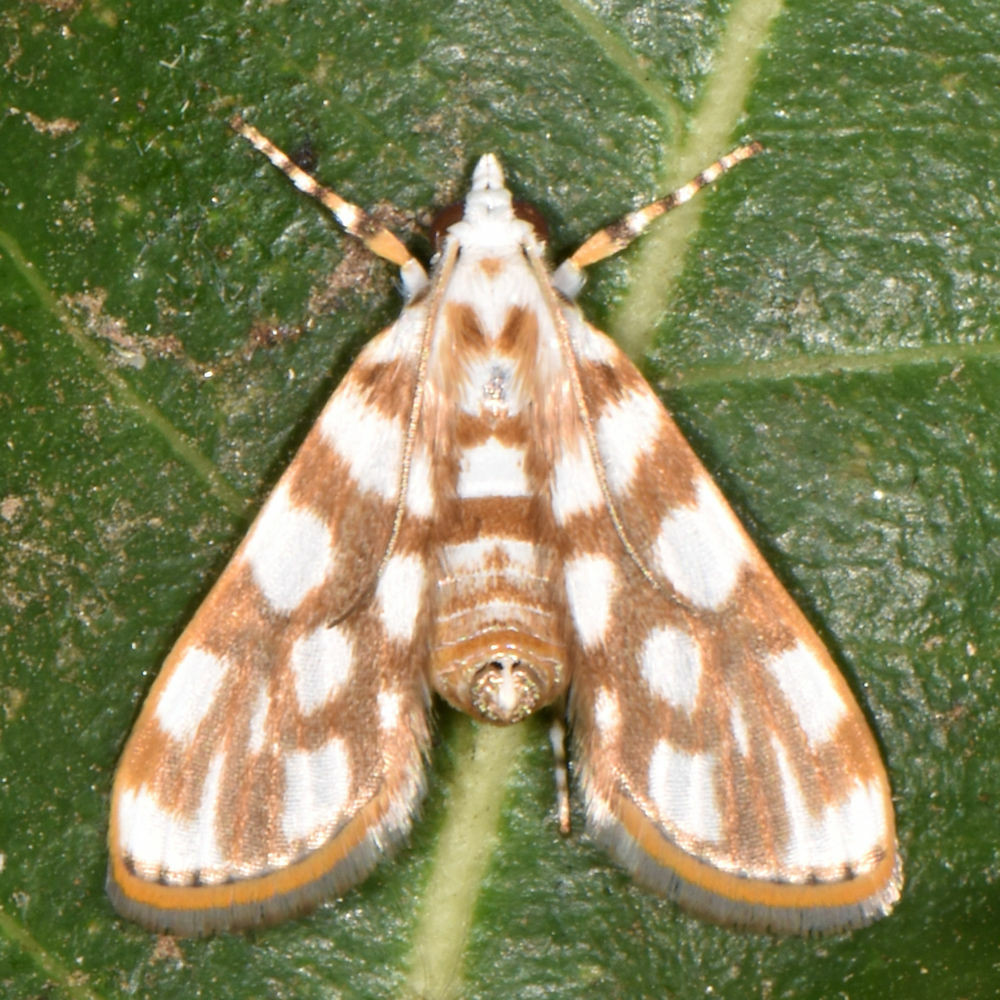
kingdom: Animalia
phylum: Arthropoda
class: Insecta
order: Lepidoptera
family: Crambidae
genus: Obtusipalpis
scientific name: Obtusipalpis pardalis
